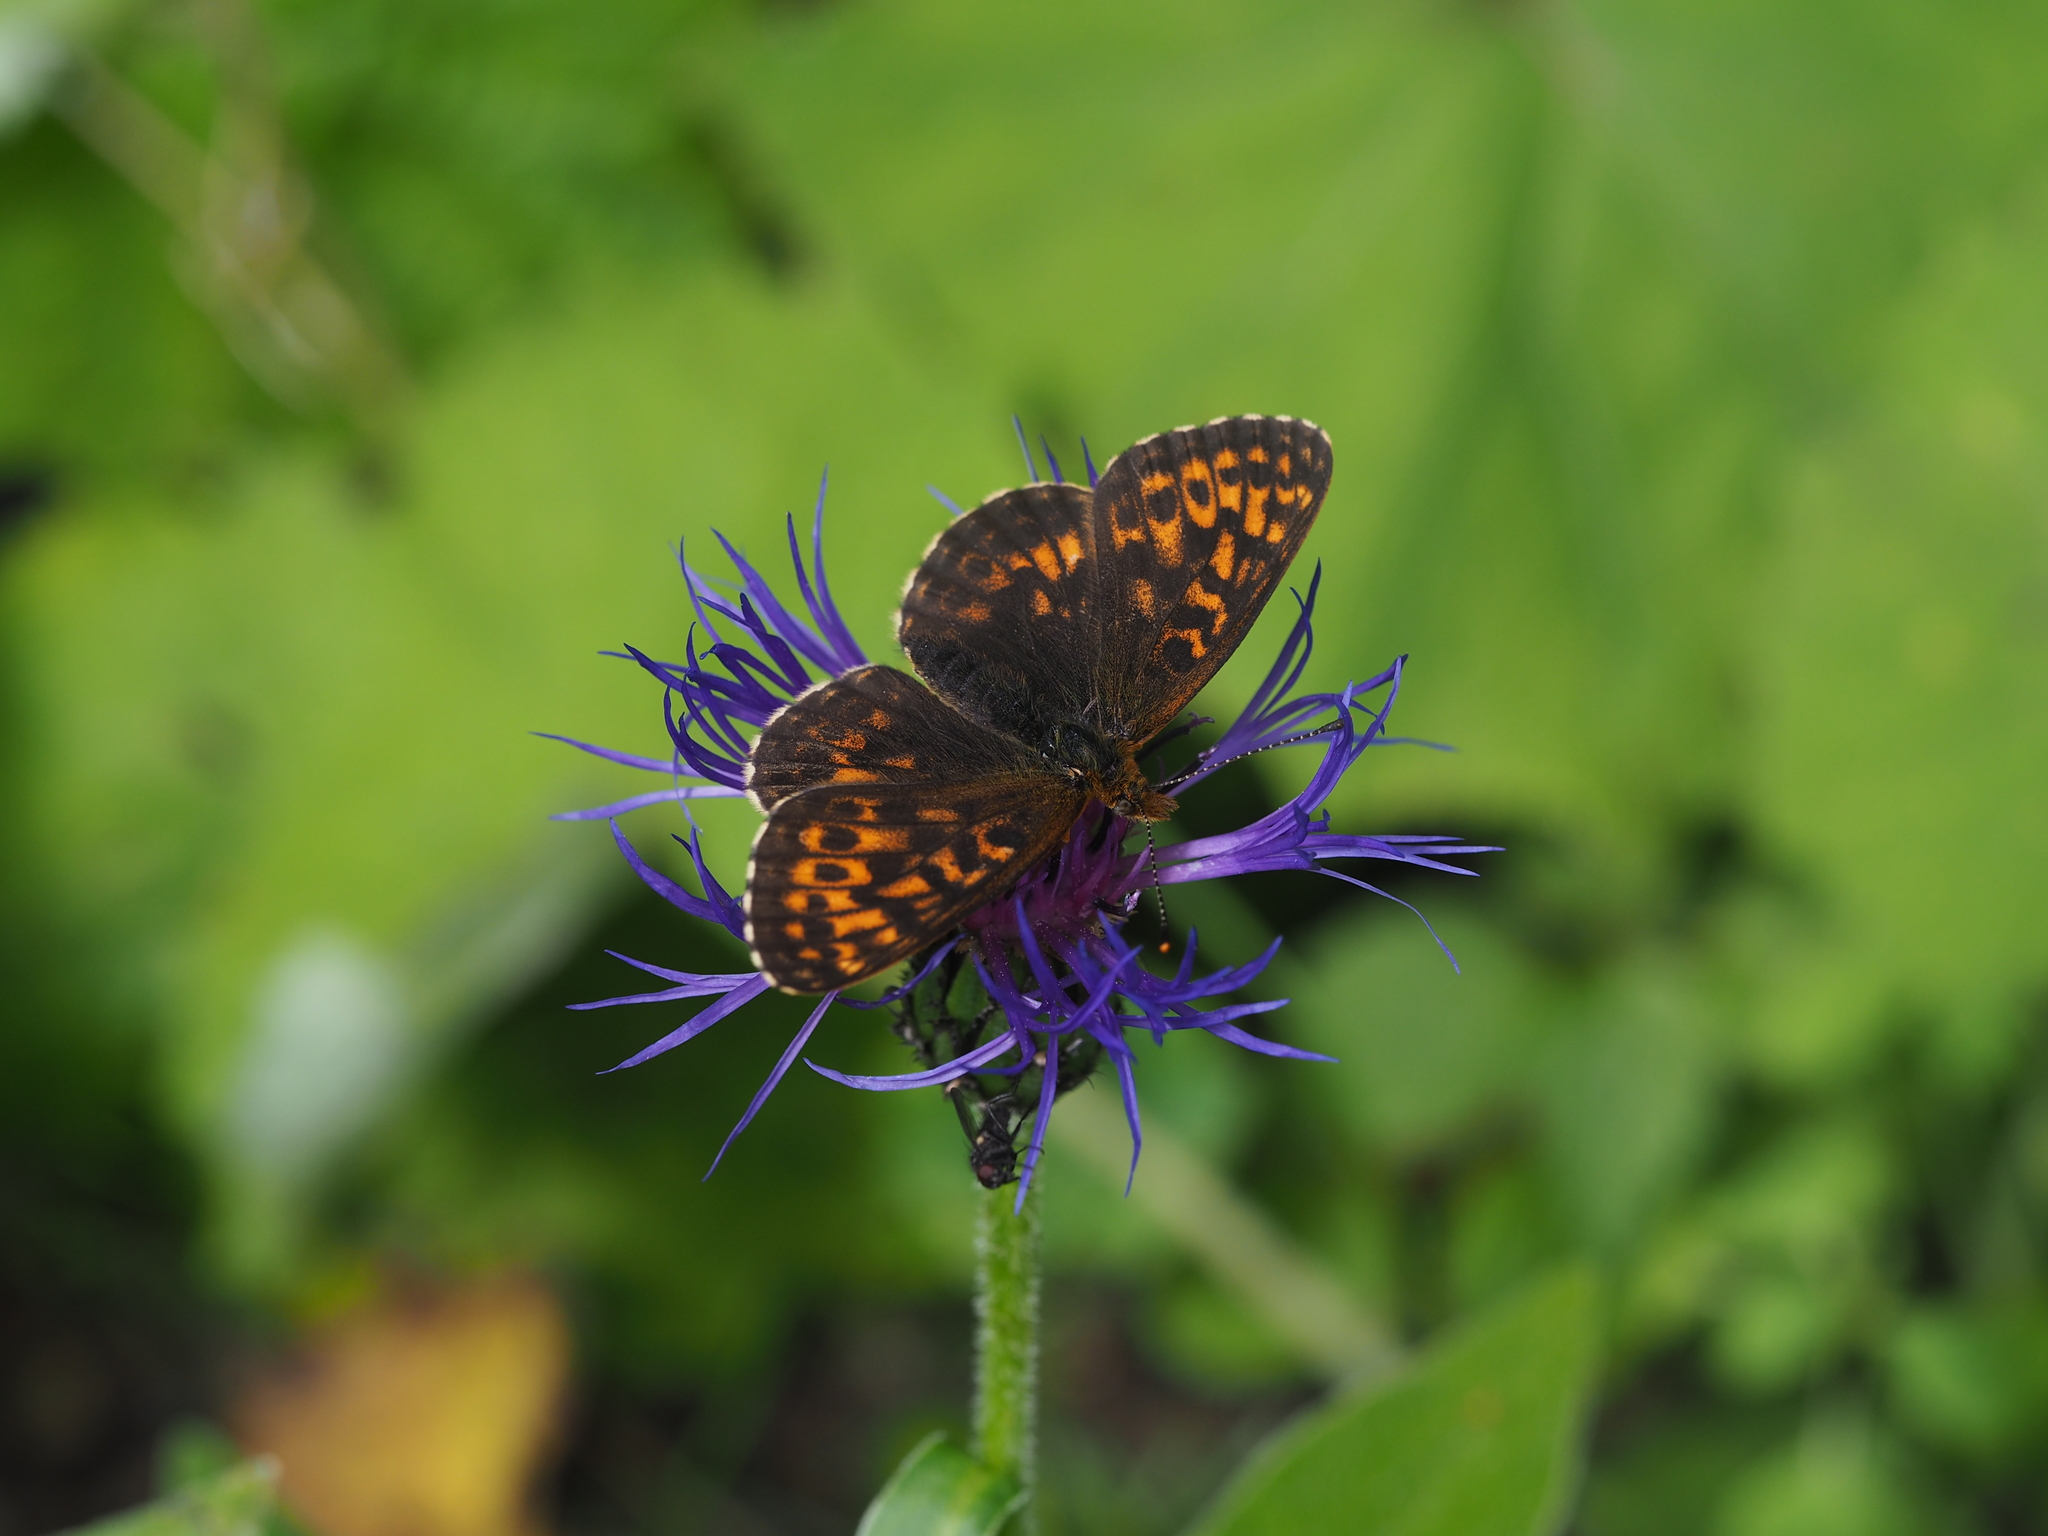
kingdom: Animalia
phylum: Arthropoda
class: Insecta
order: Lepidoptera
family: Nymphalidae
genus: Boloria
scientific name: Boloria thore
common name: Thor's fritillary
